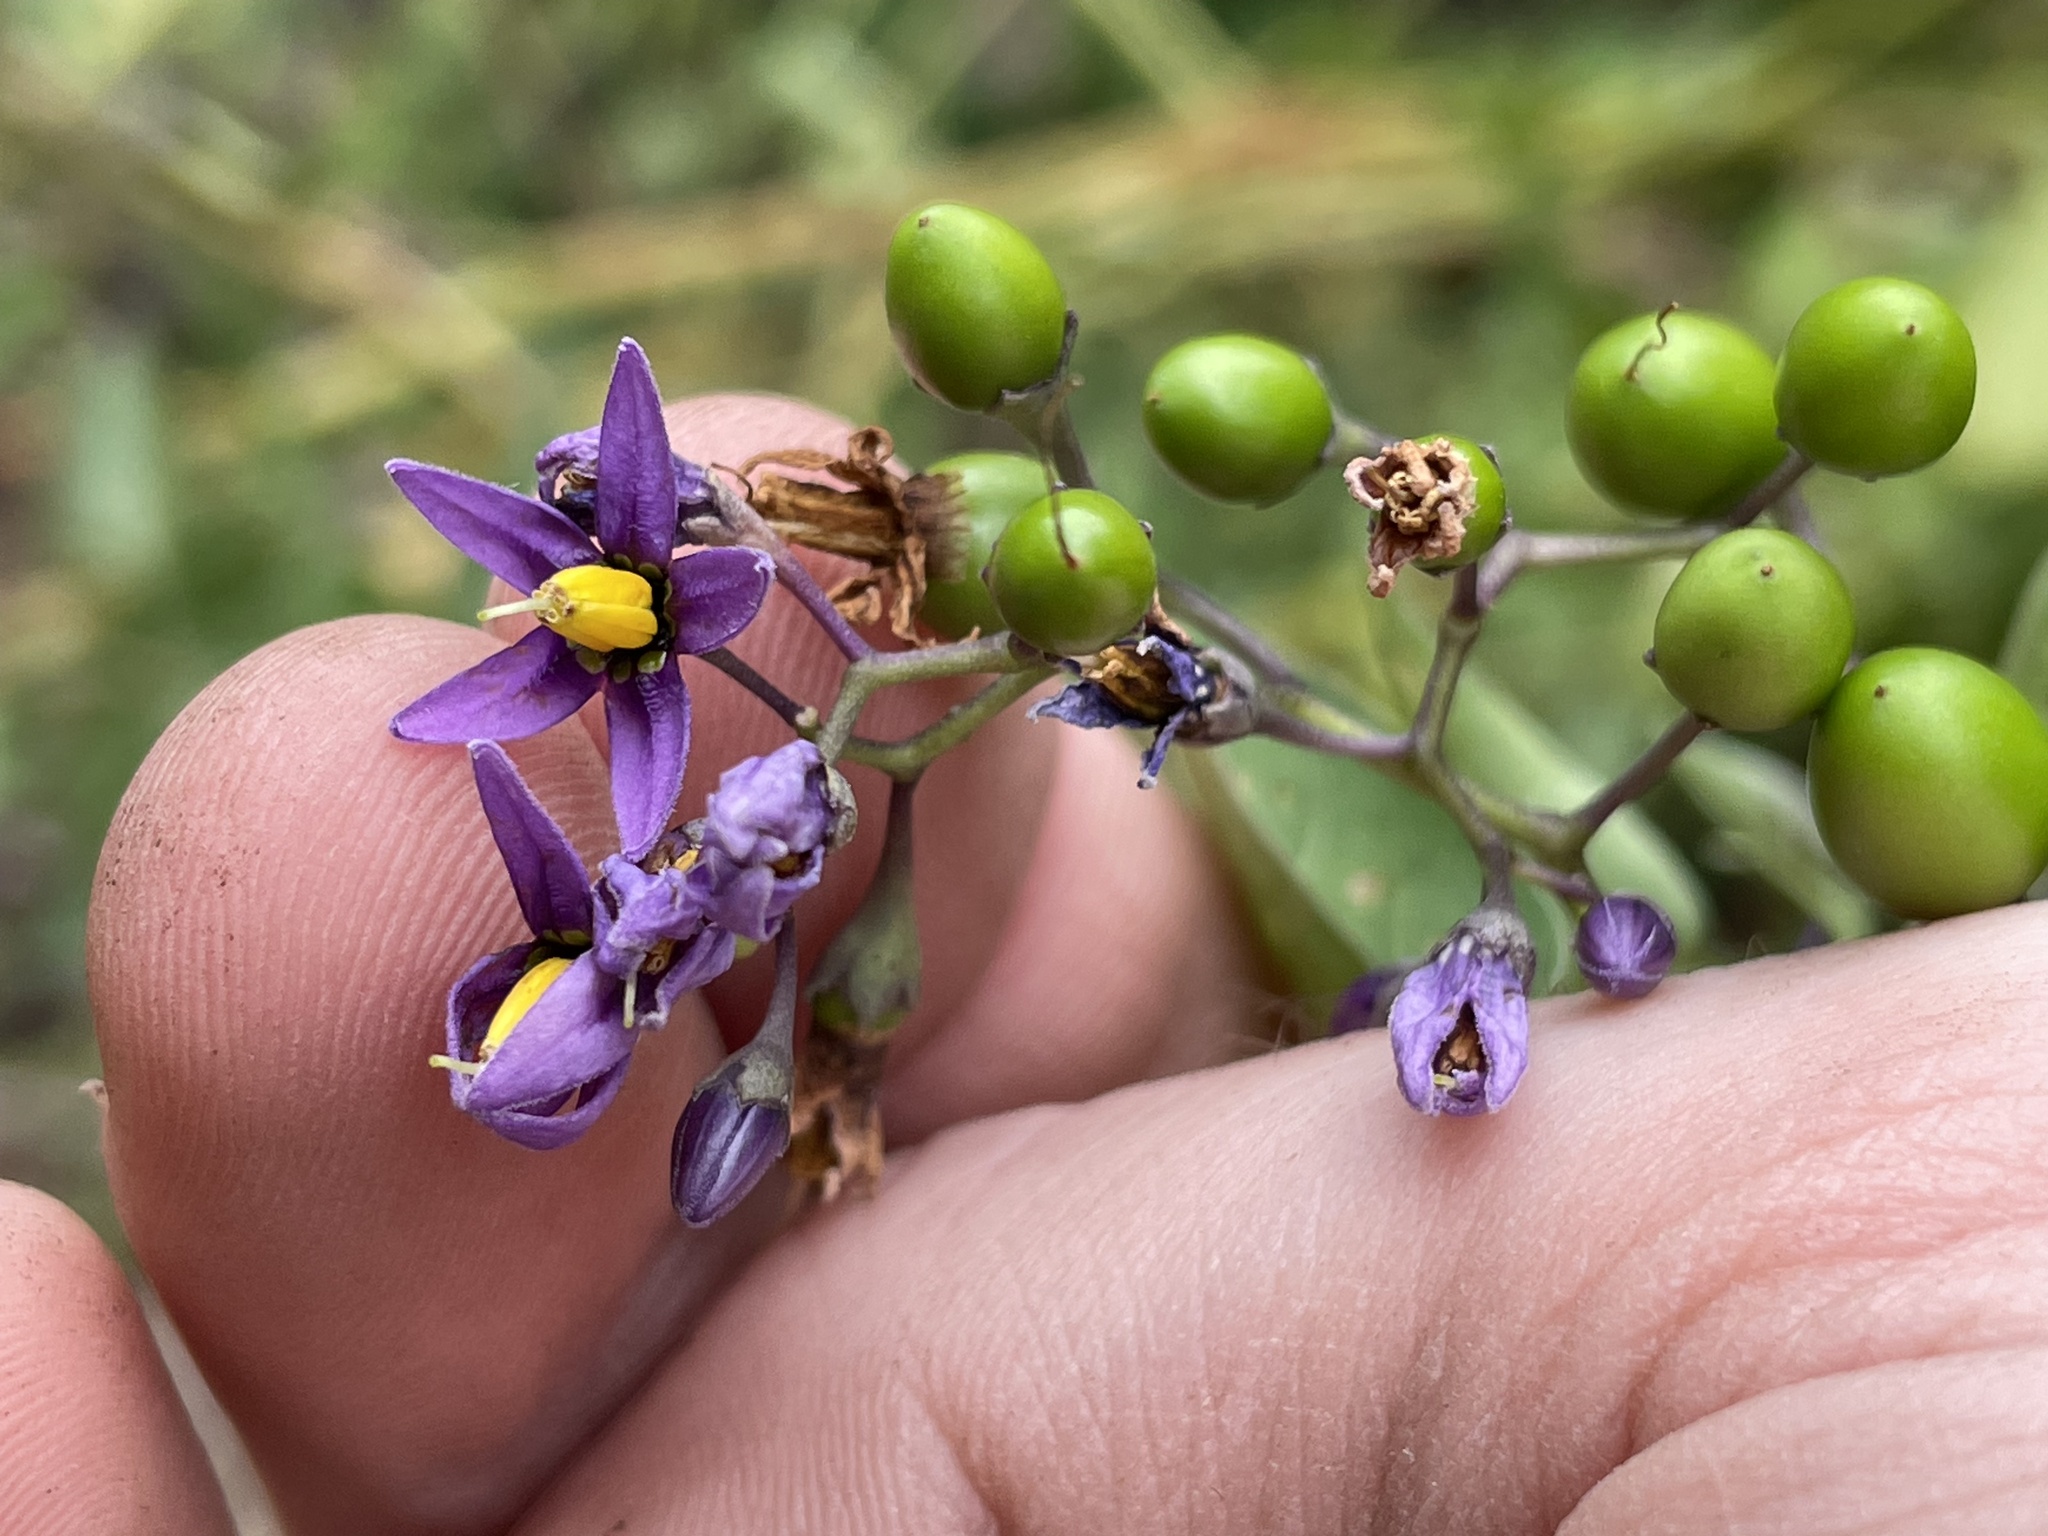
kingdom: Plantae
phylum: Tracheophyta
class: Magnoliopsida
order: Solanales
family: Solanaceae
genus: Solanum
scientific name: Solanum dulcamara
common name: Climbing nightshade
